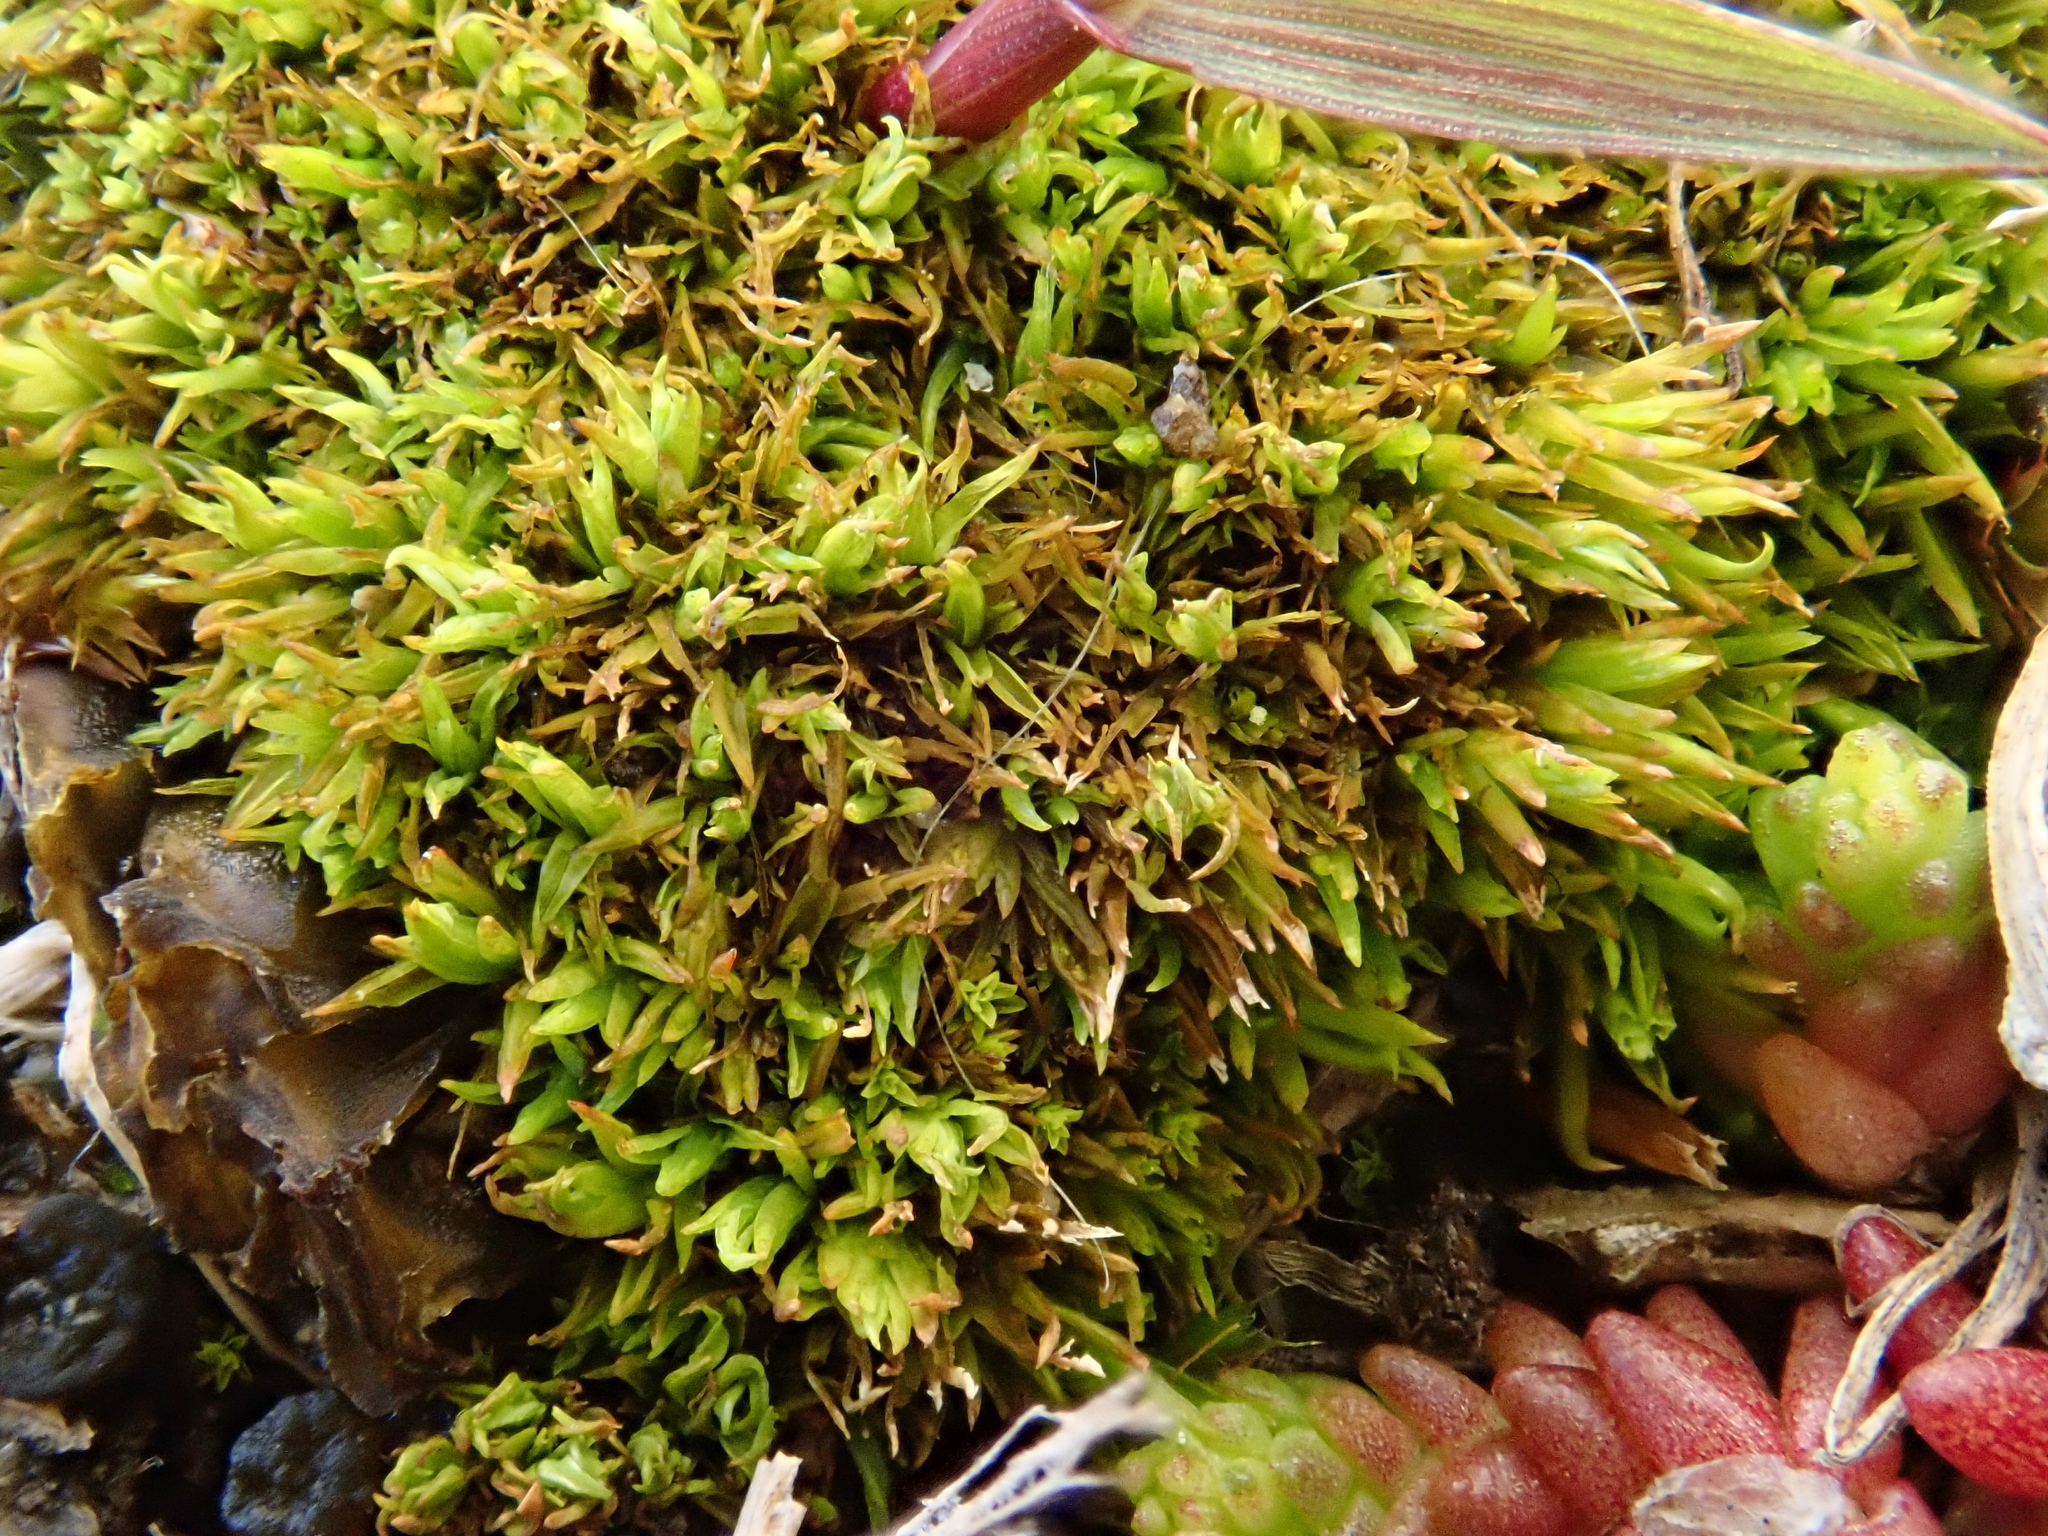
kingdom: Plantae
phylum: Bryophyta
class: Bryopsida
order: Pottiales
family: Pottiaceae
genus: Tortella
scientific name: Tortella inclinata
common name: Inclined twisted moss
